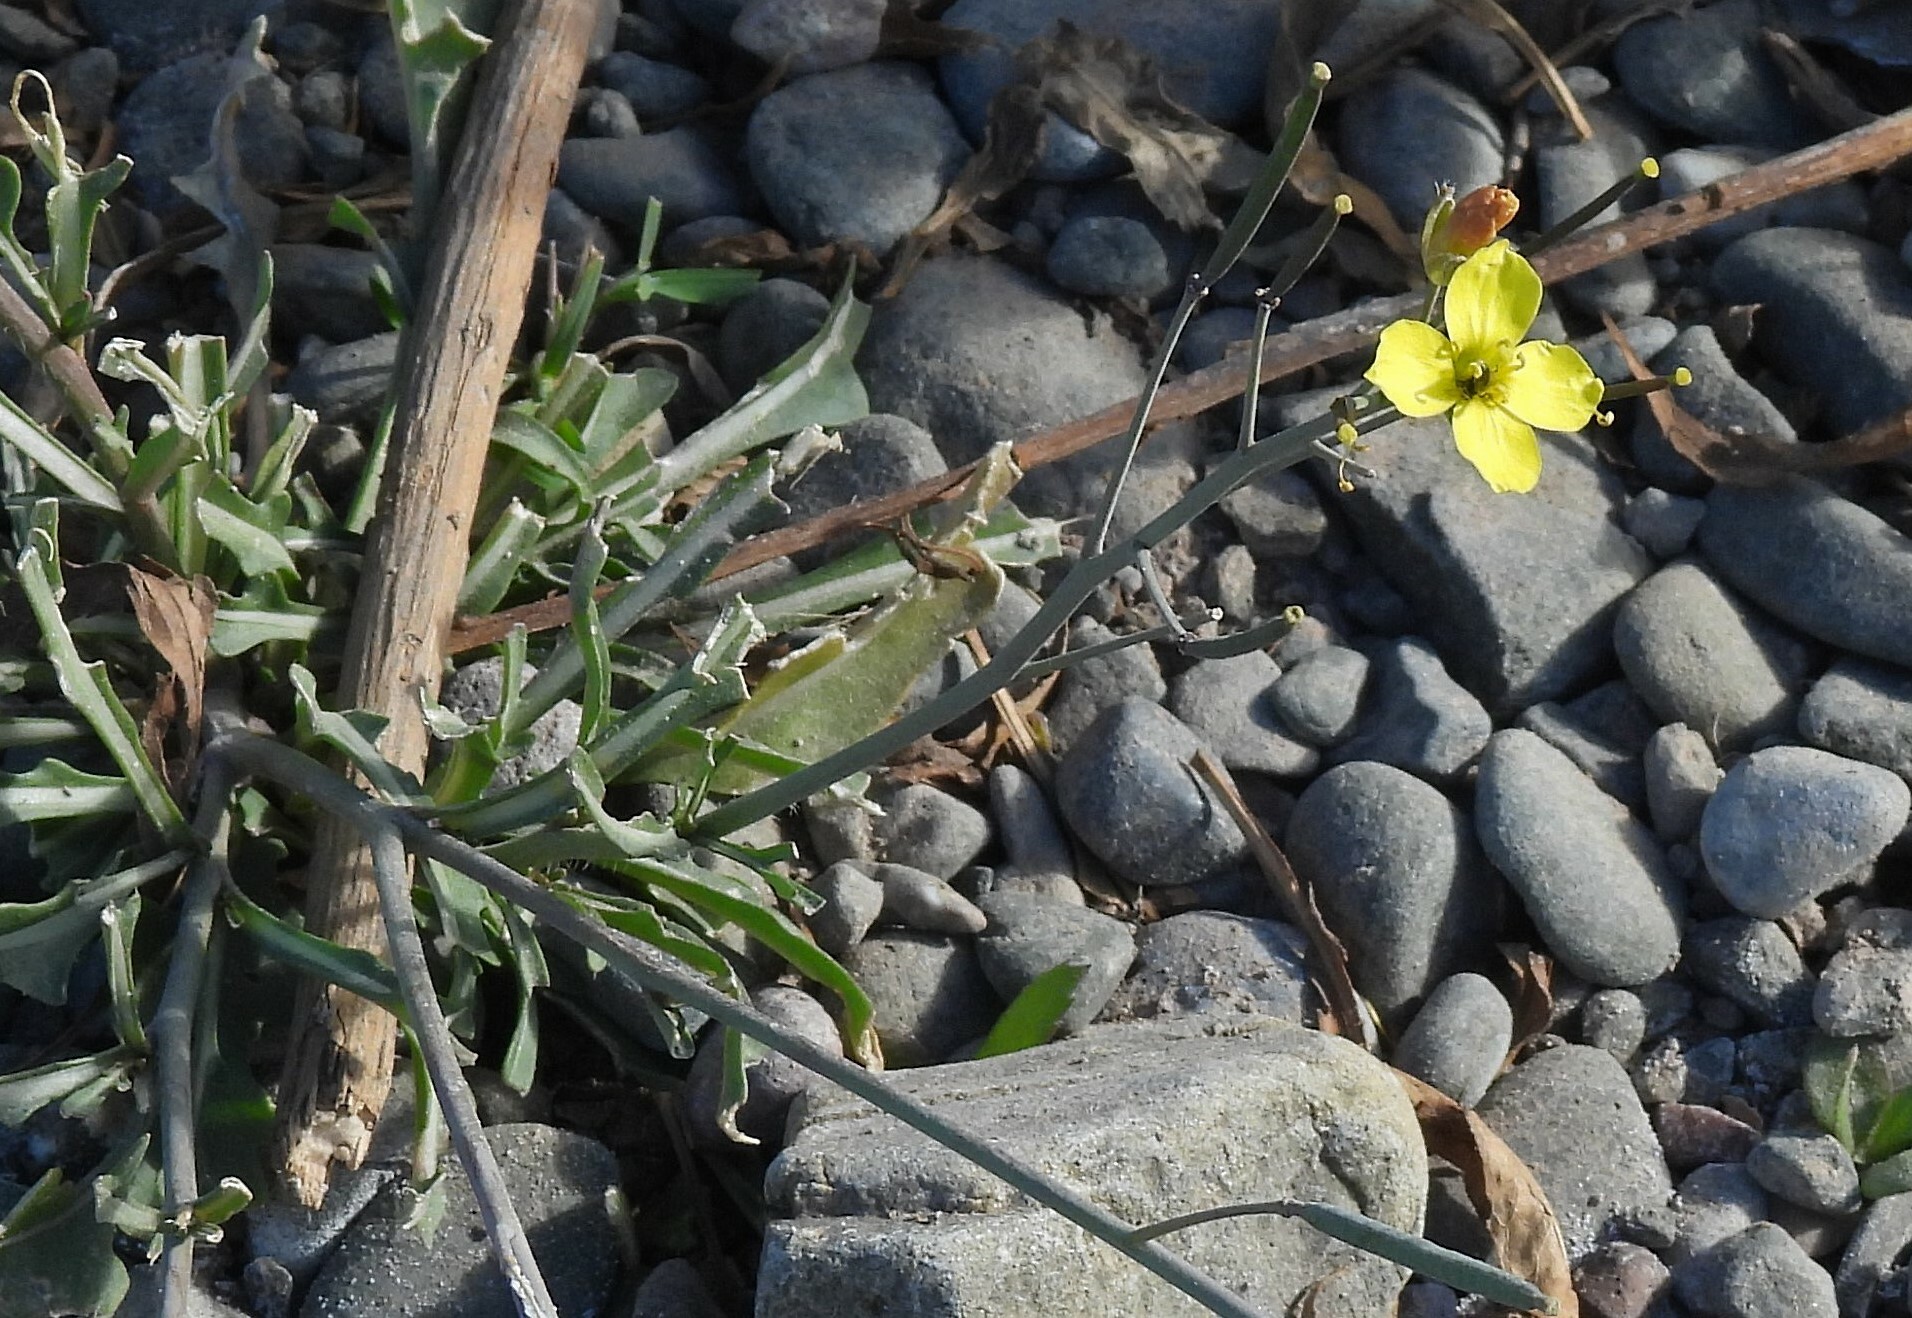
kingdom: Plantae
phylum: Tracheophyta
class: Magnoliopsida
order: Brassicales
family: Brassicaceae
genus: Diplotaxis
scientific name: Diplotaxis tenuifolia
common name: Perennial wall-rocket
